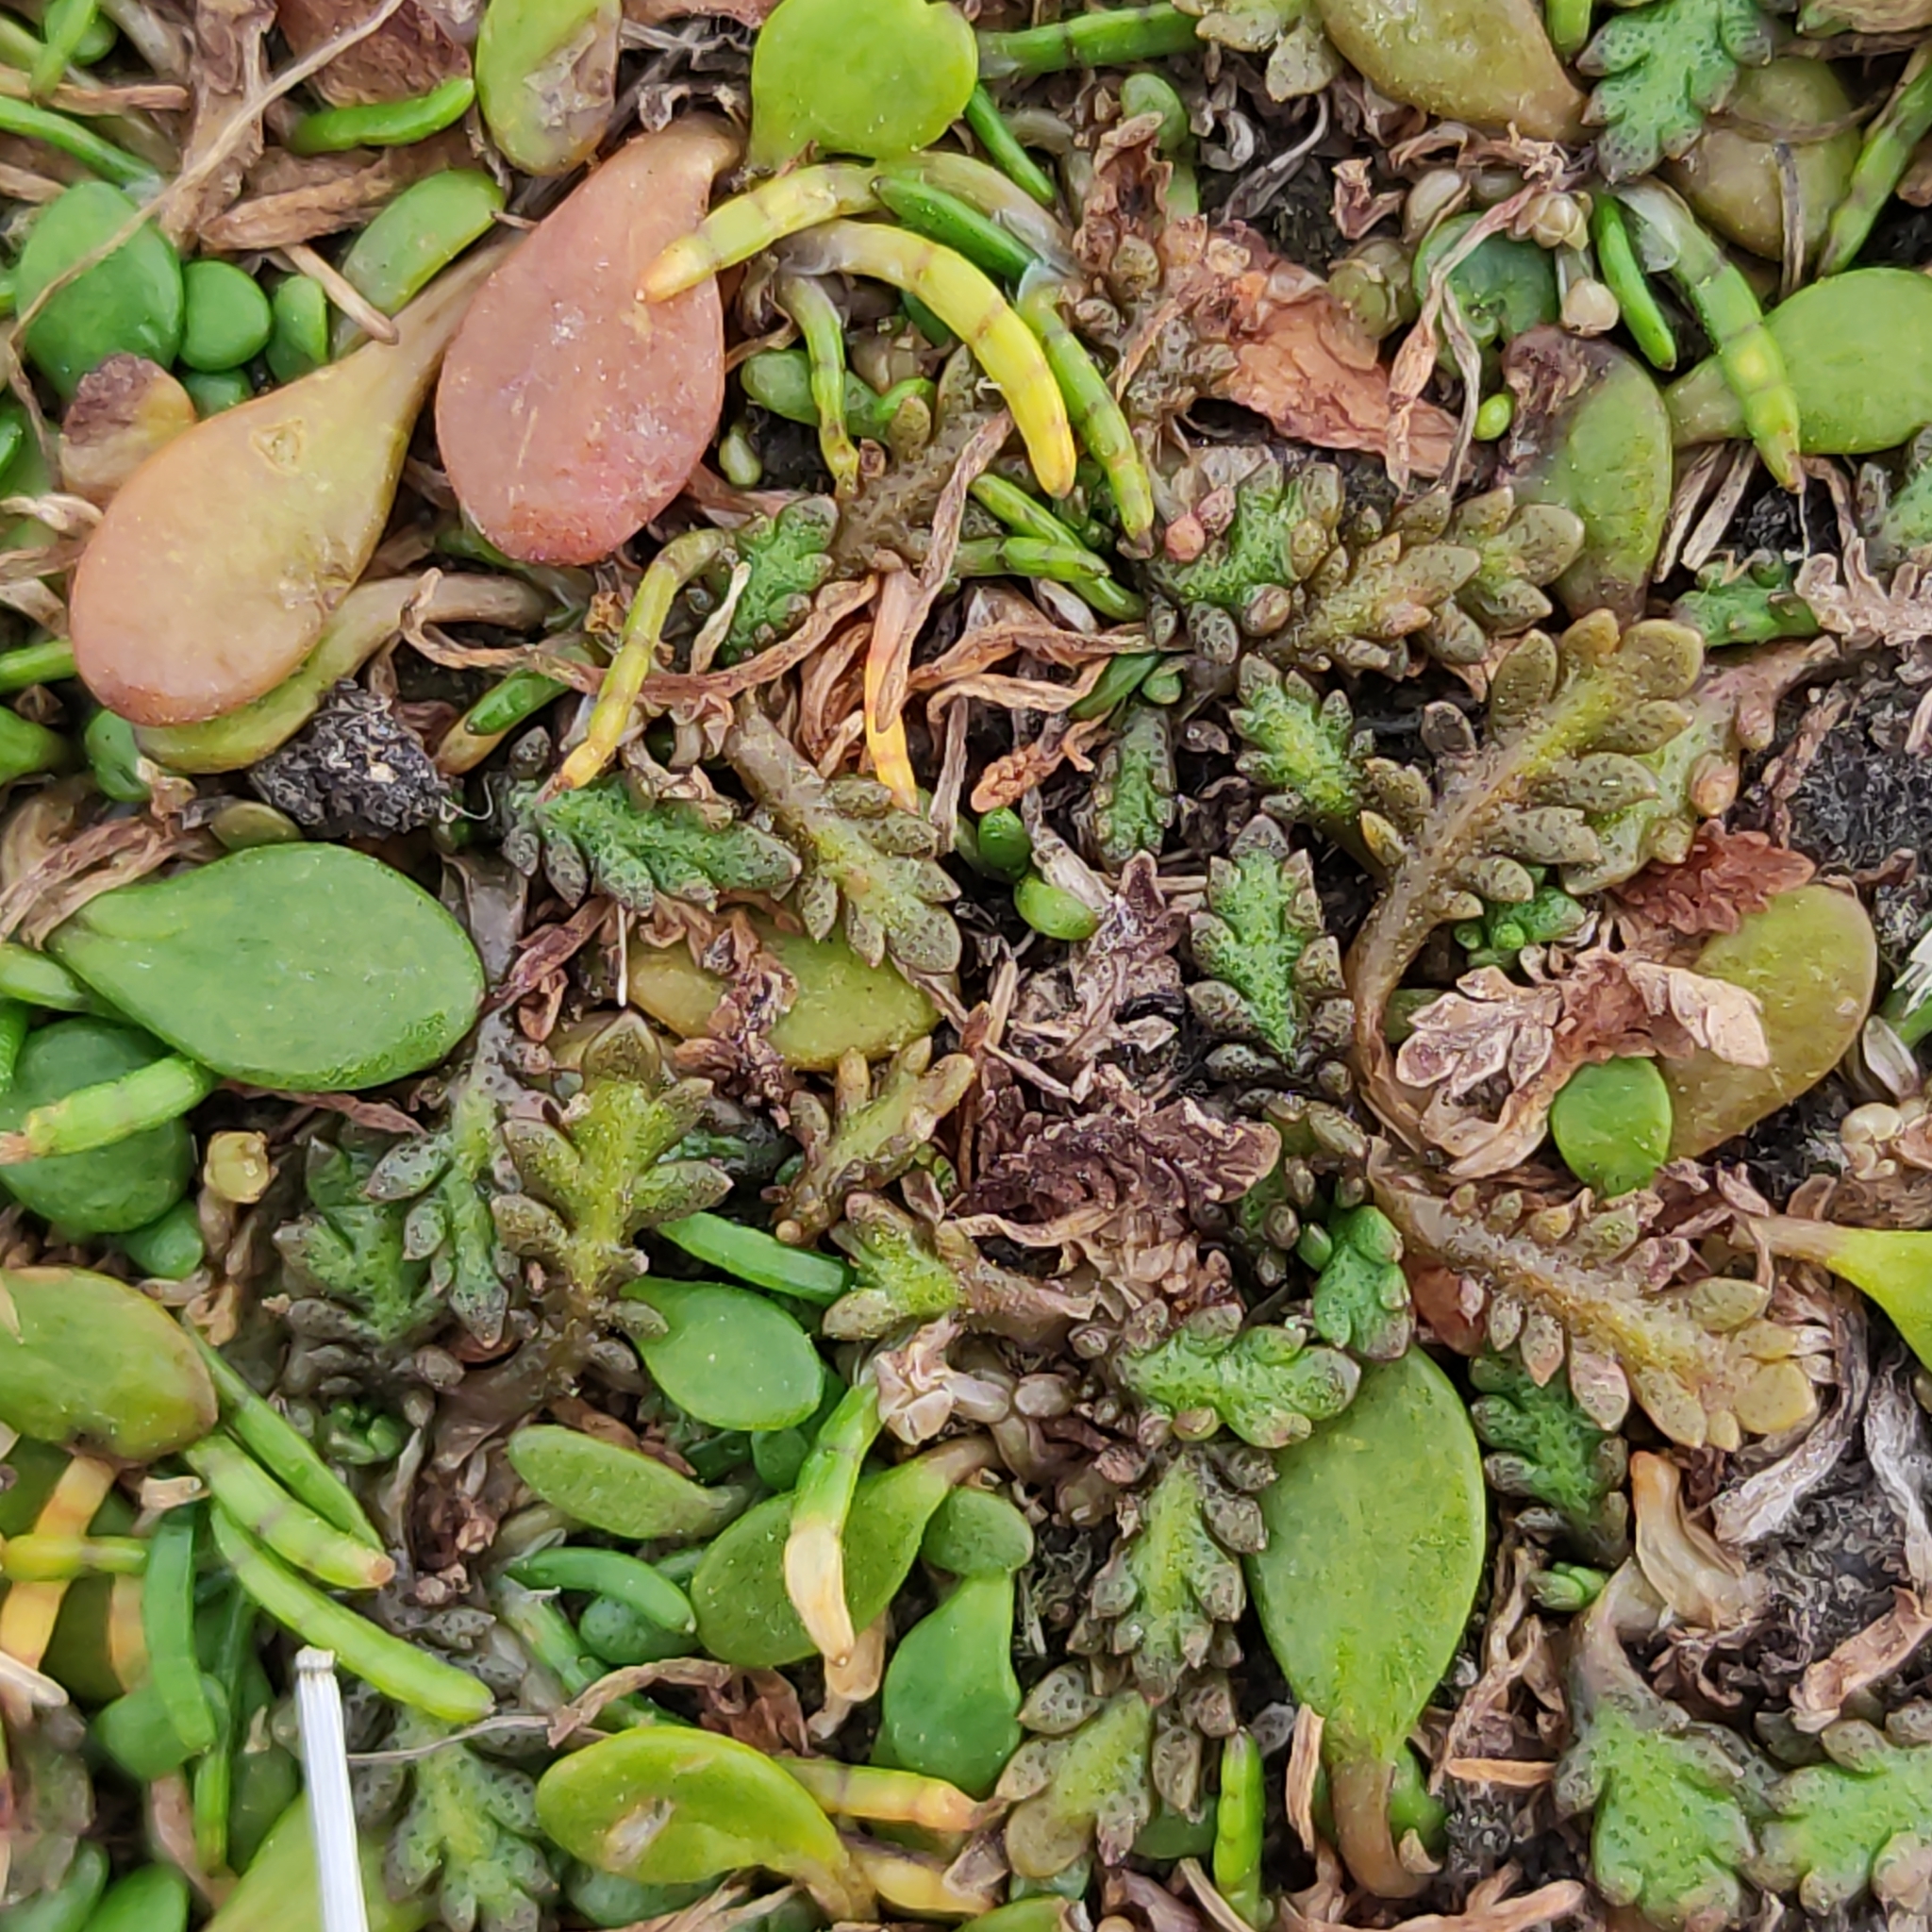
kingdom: Plantae
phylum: Tracheophyta
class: Magnoliopsida
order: Asterales
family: Asteraceae
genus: Leptinella
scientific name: Leptinella dioica
